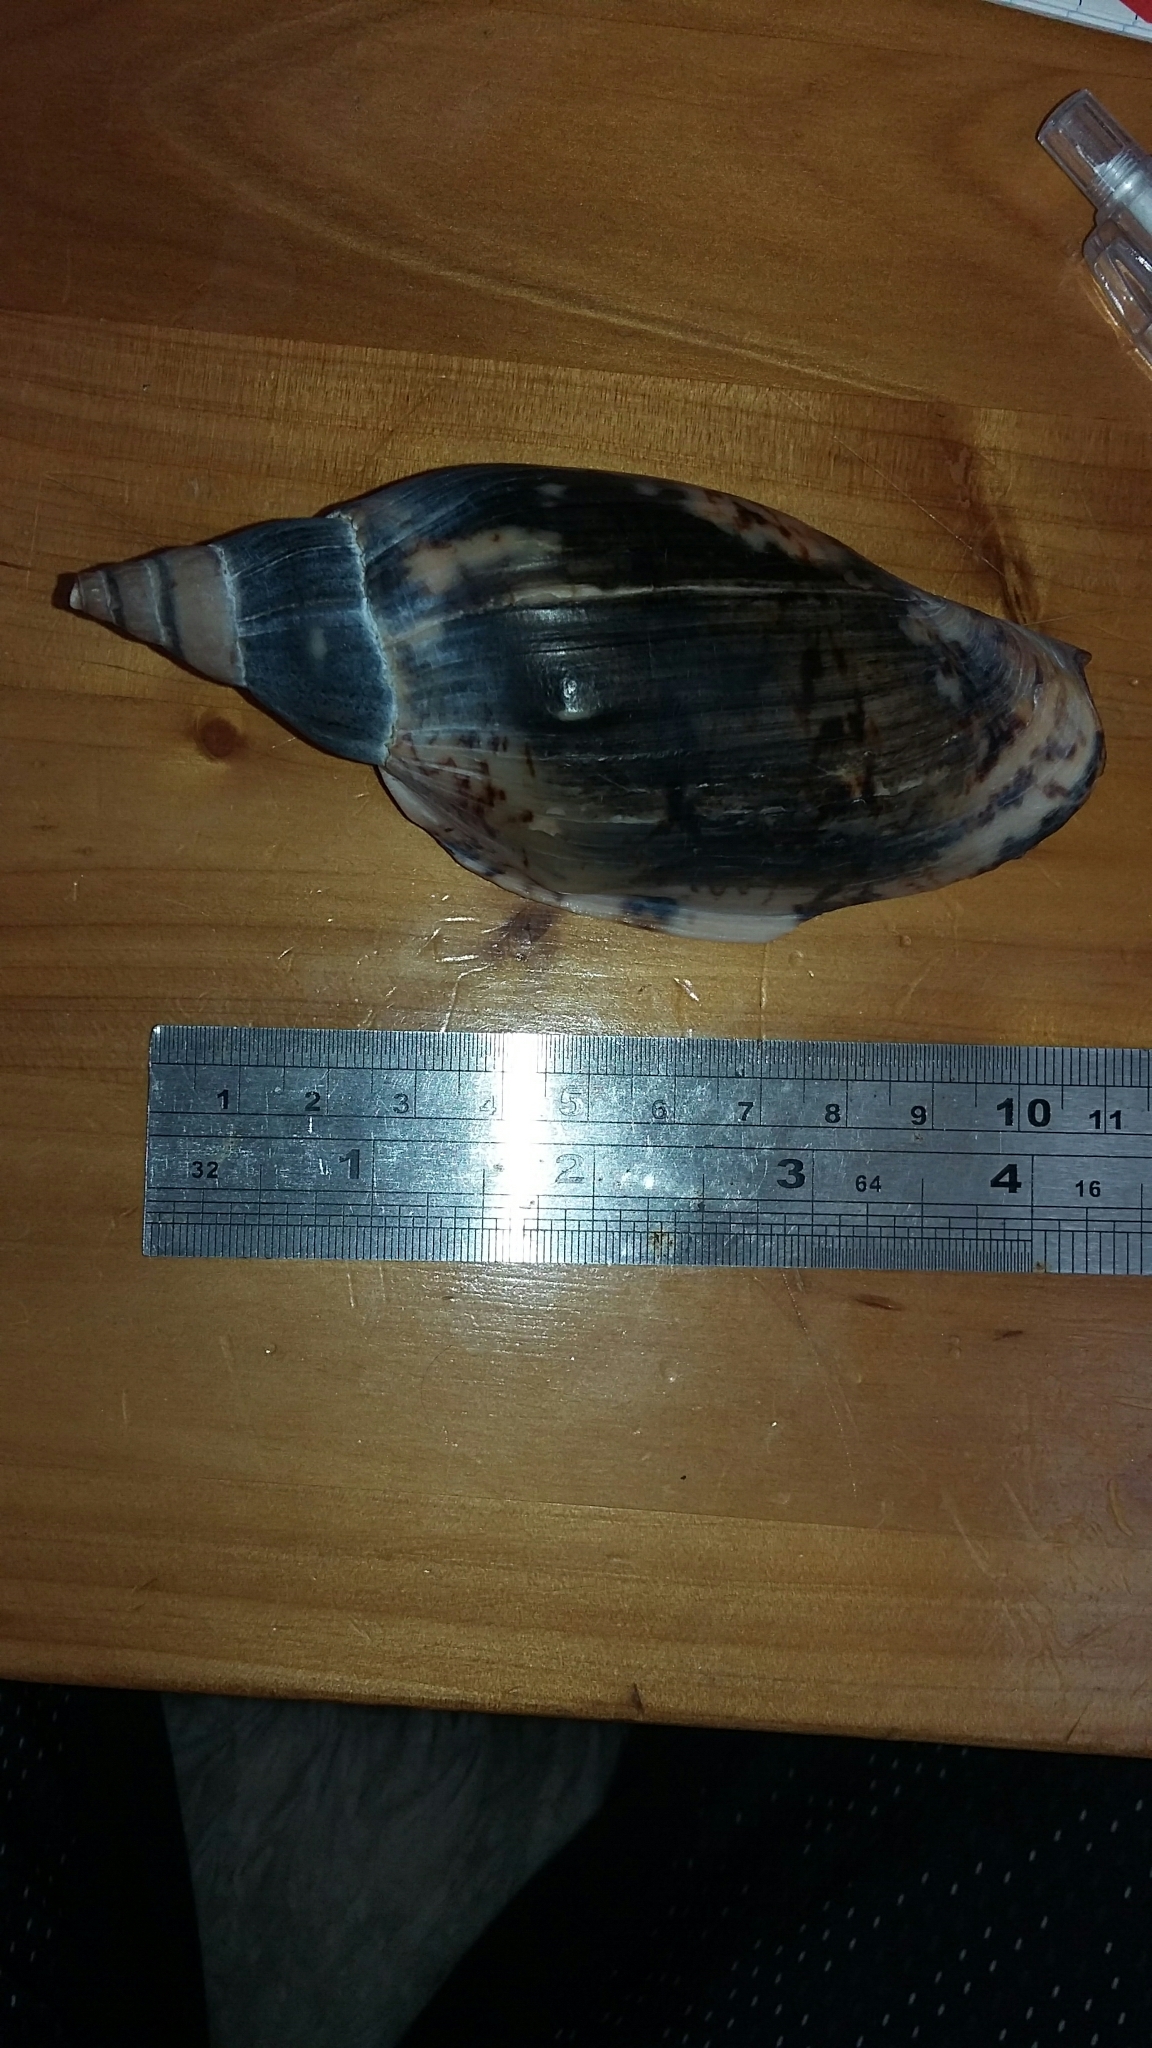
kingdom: Animalia
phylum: Mollusca
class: Gastropoda
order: Neogastropoda
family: Volutidae
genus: Alcithoe
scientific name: Alcithoe arabica
